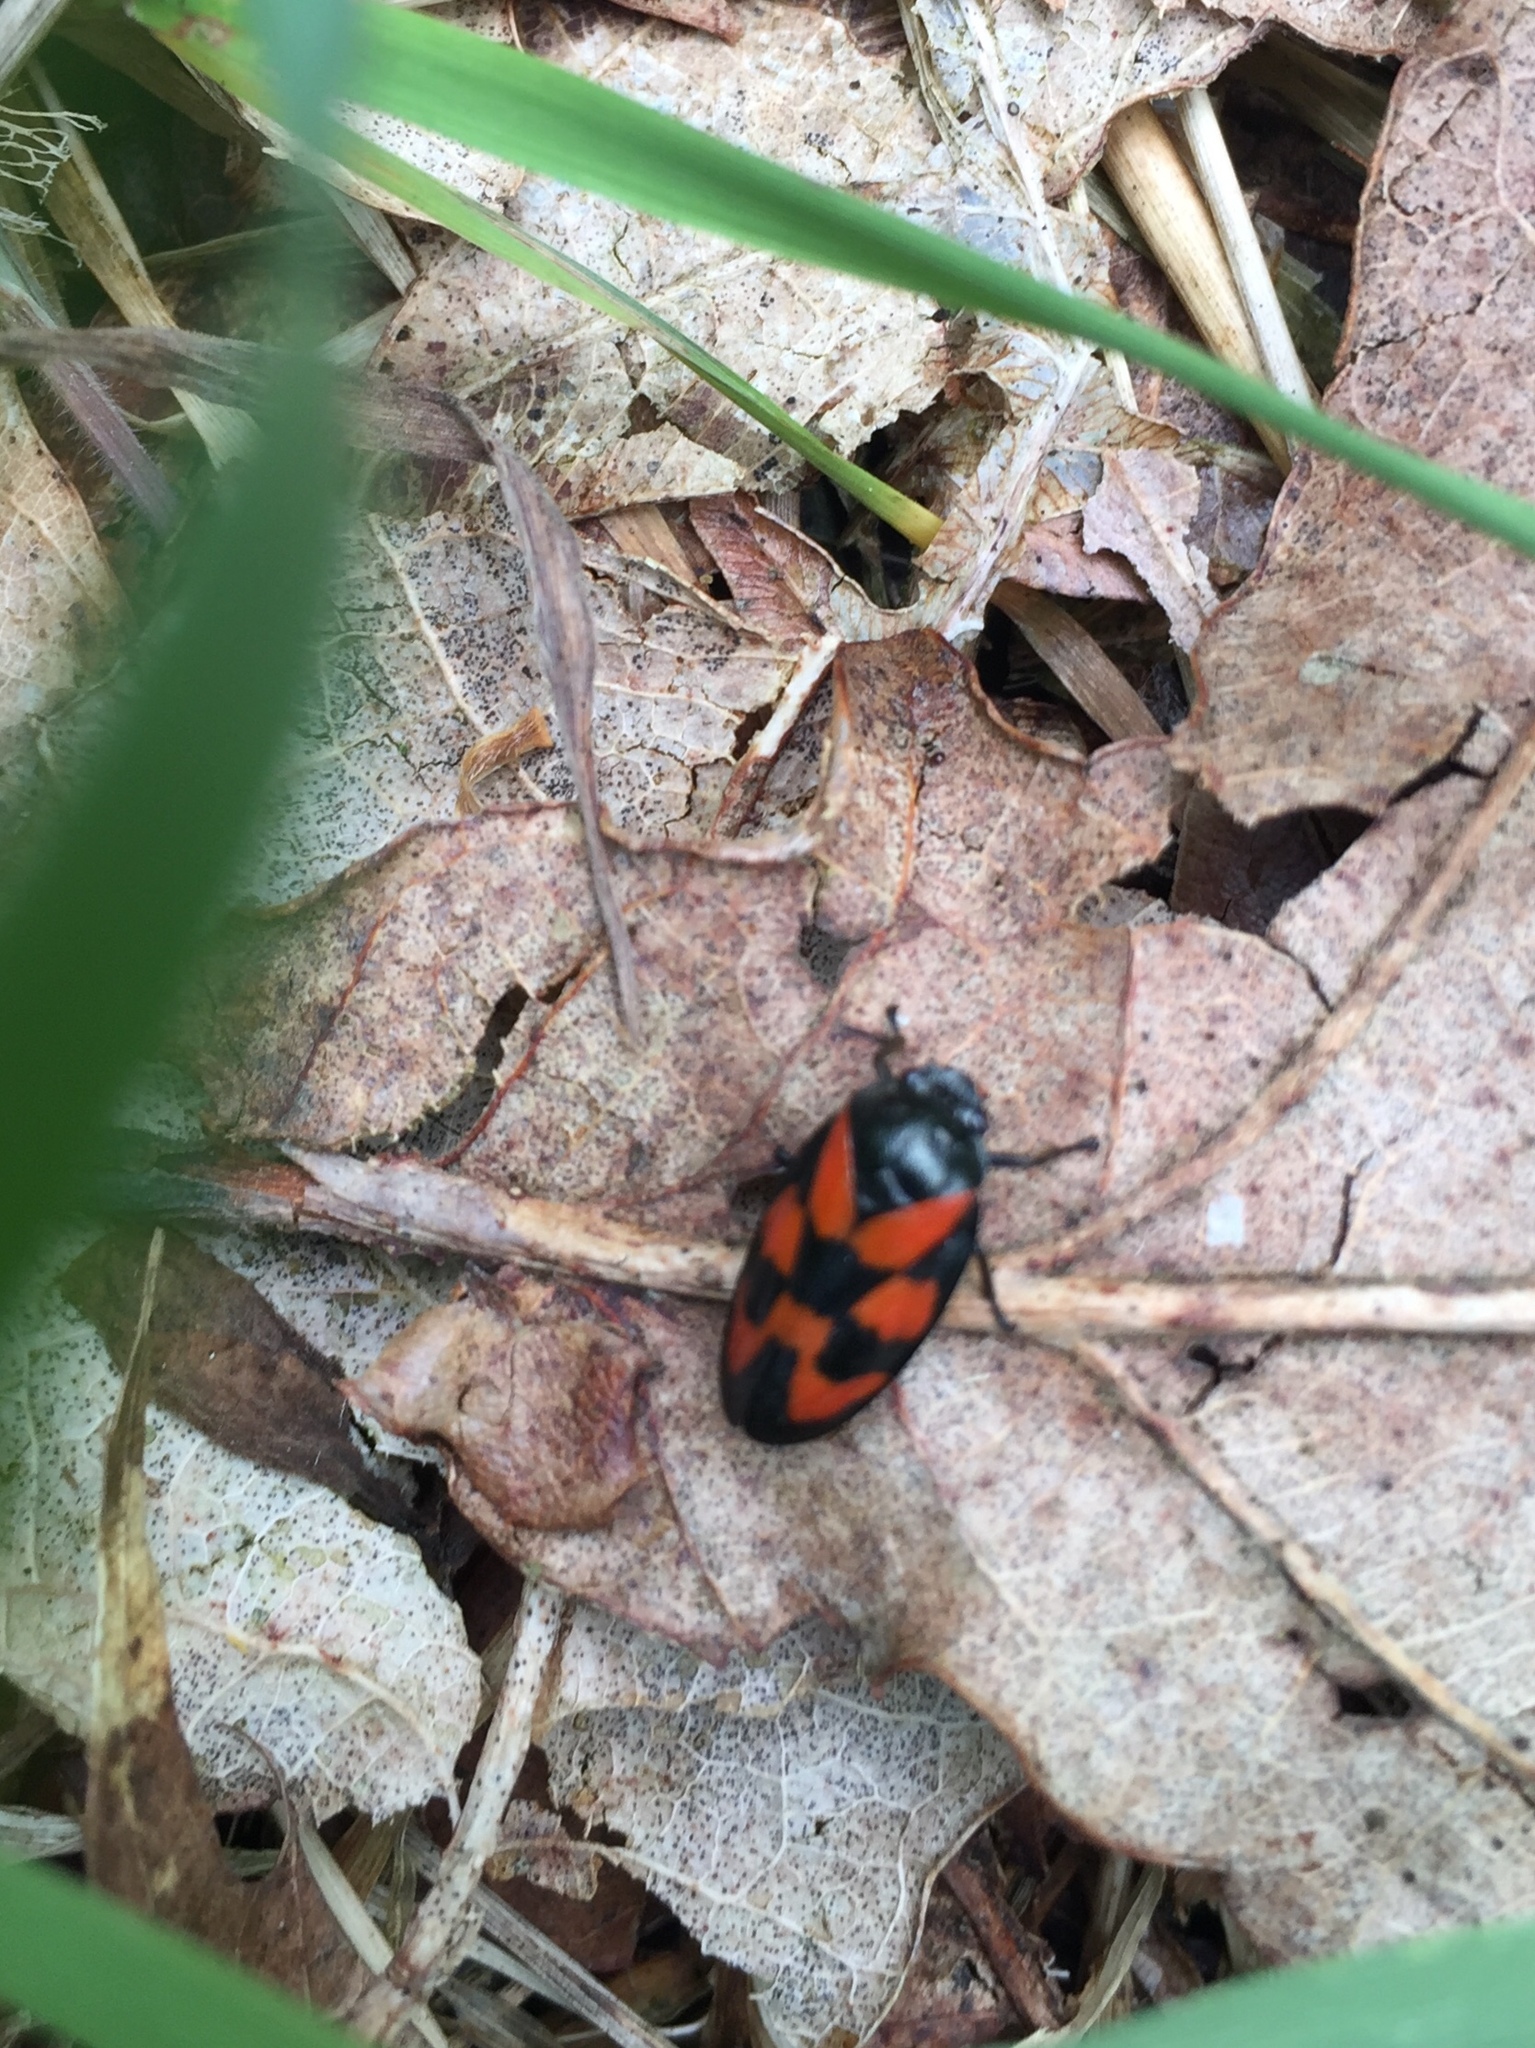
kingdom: Animalia
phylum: Arthropoda
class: Insecta
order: Hemiptera
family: Cercopidae
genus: Cercopis
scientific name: Cercopis vulnerata
